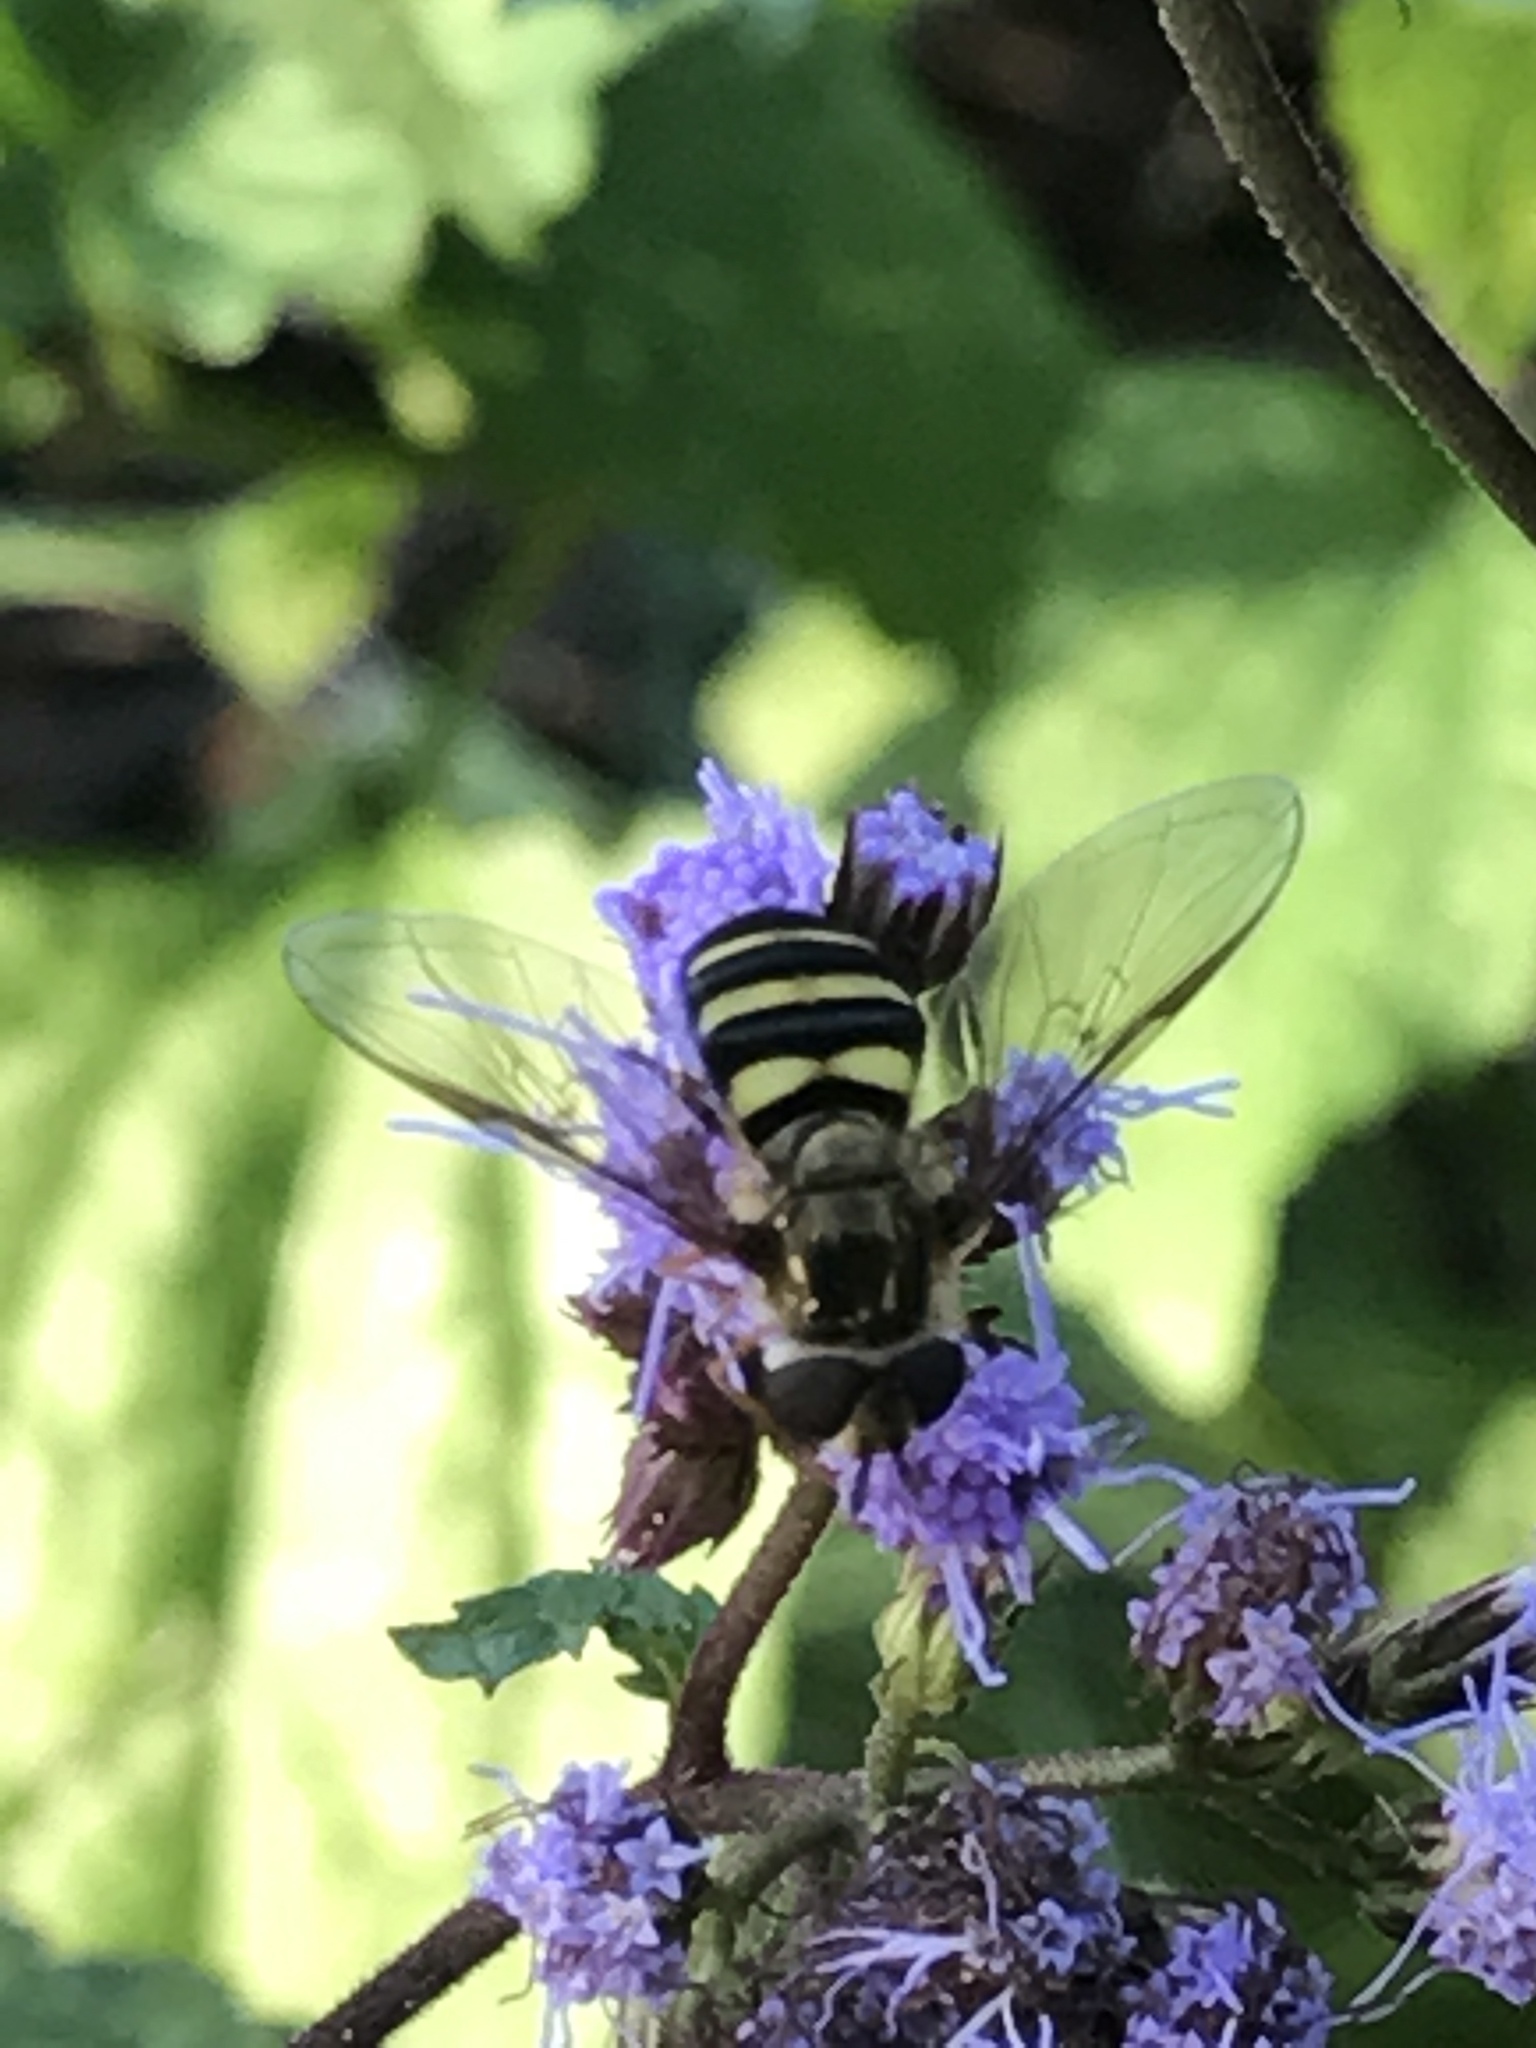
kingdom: Animalia
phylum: Arthropoda
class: Insecta
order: Diptera
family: Syrphidae
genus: Eupeodes
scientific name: Eupeodes
